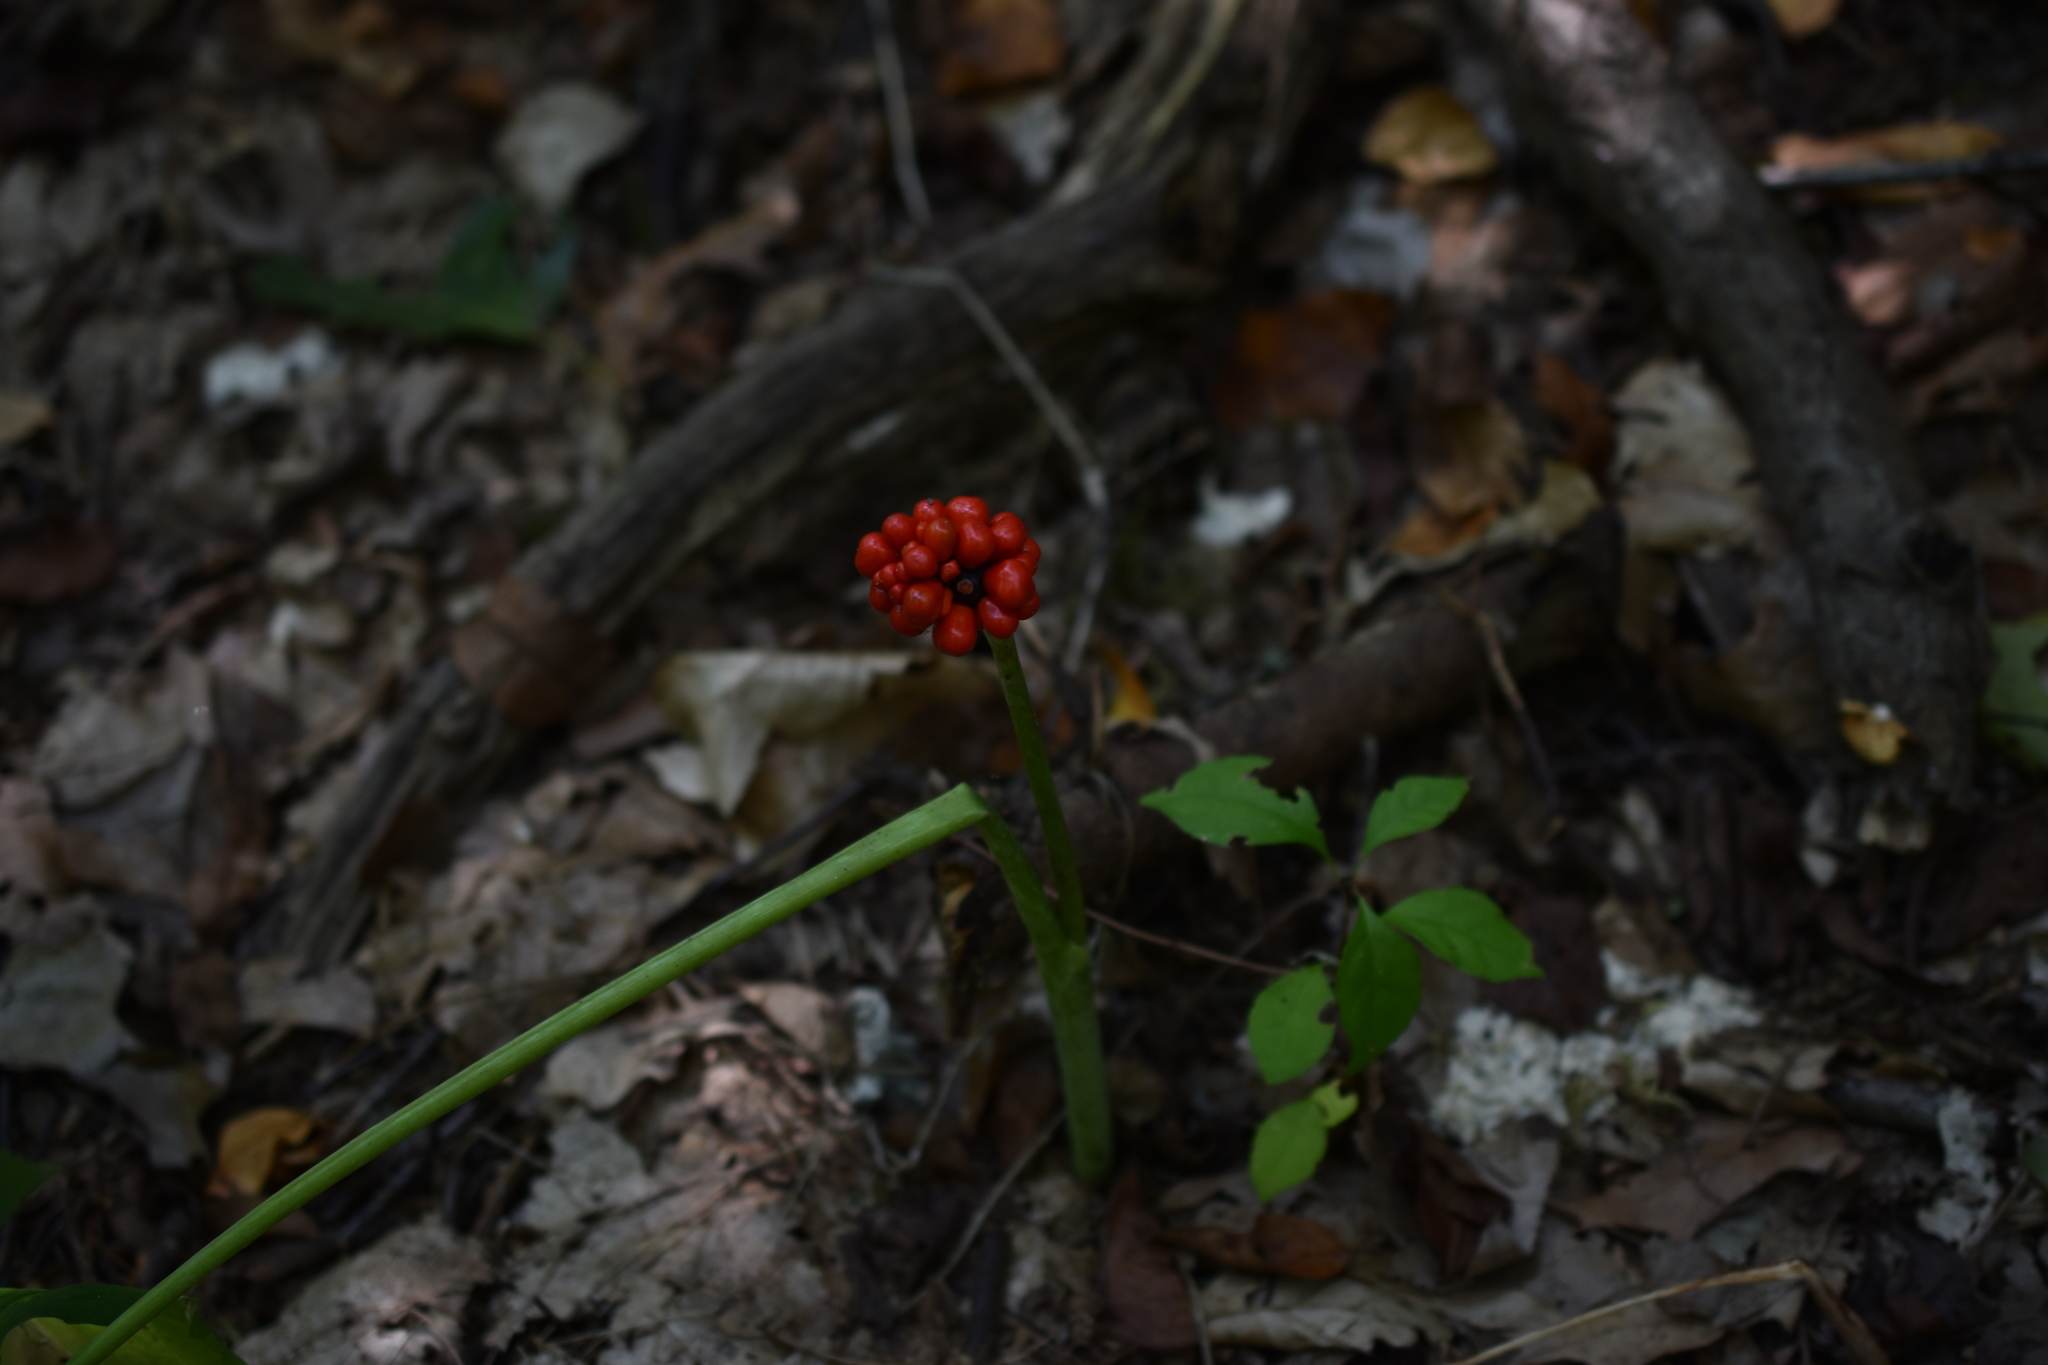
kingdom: Plantae
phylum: Tracheophyta
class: Liliopsida
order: Alismatales
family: Araceae
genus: Arisaema
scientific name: Arisaema triphyllum
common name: Jack-in-the-pulpit
